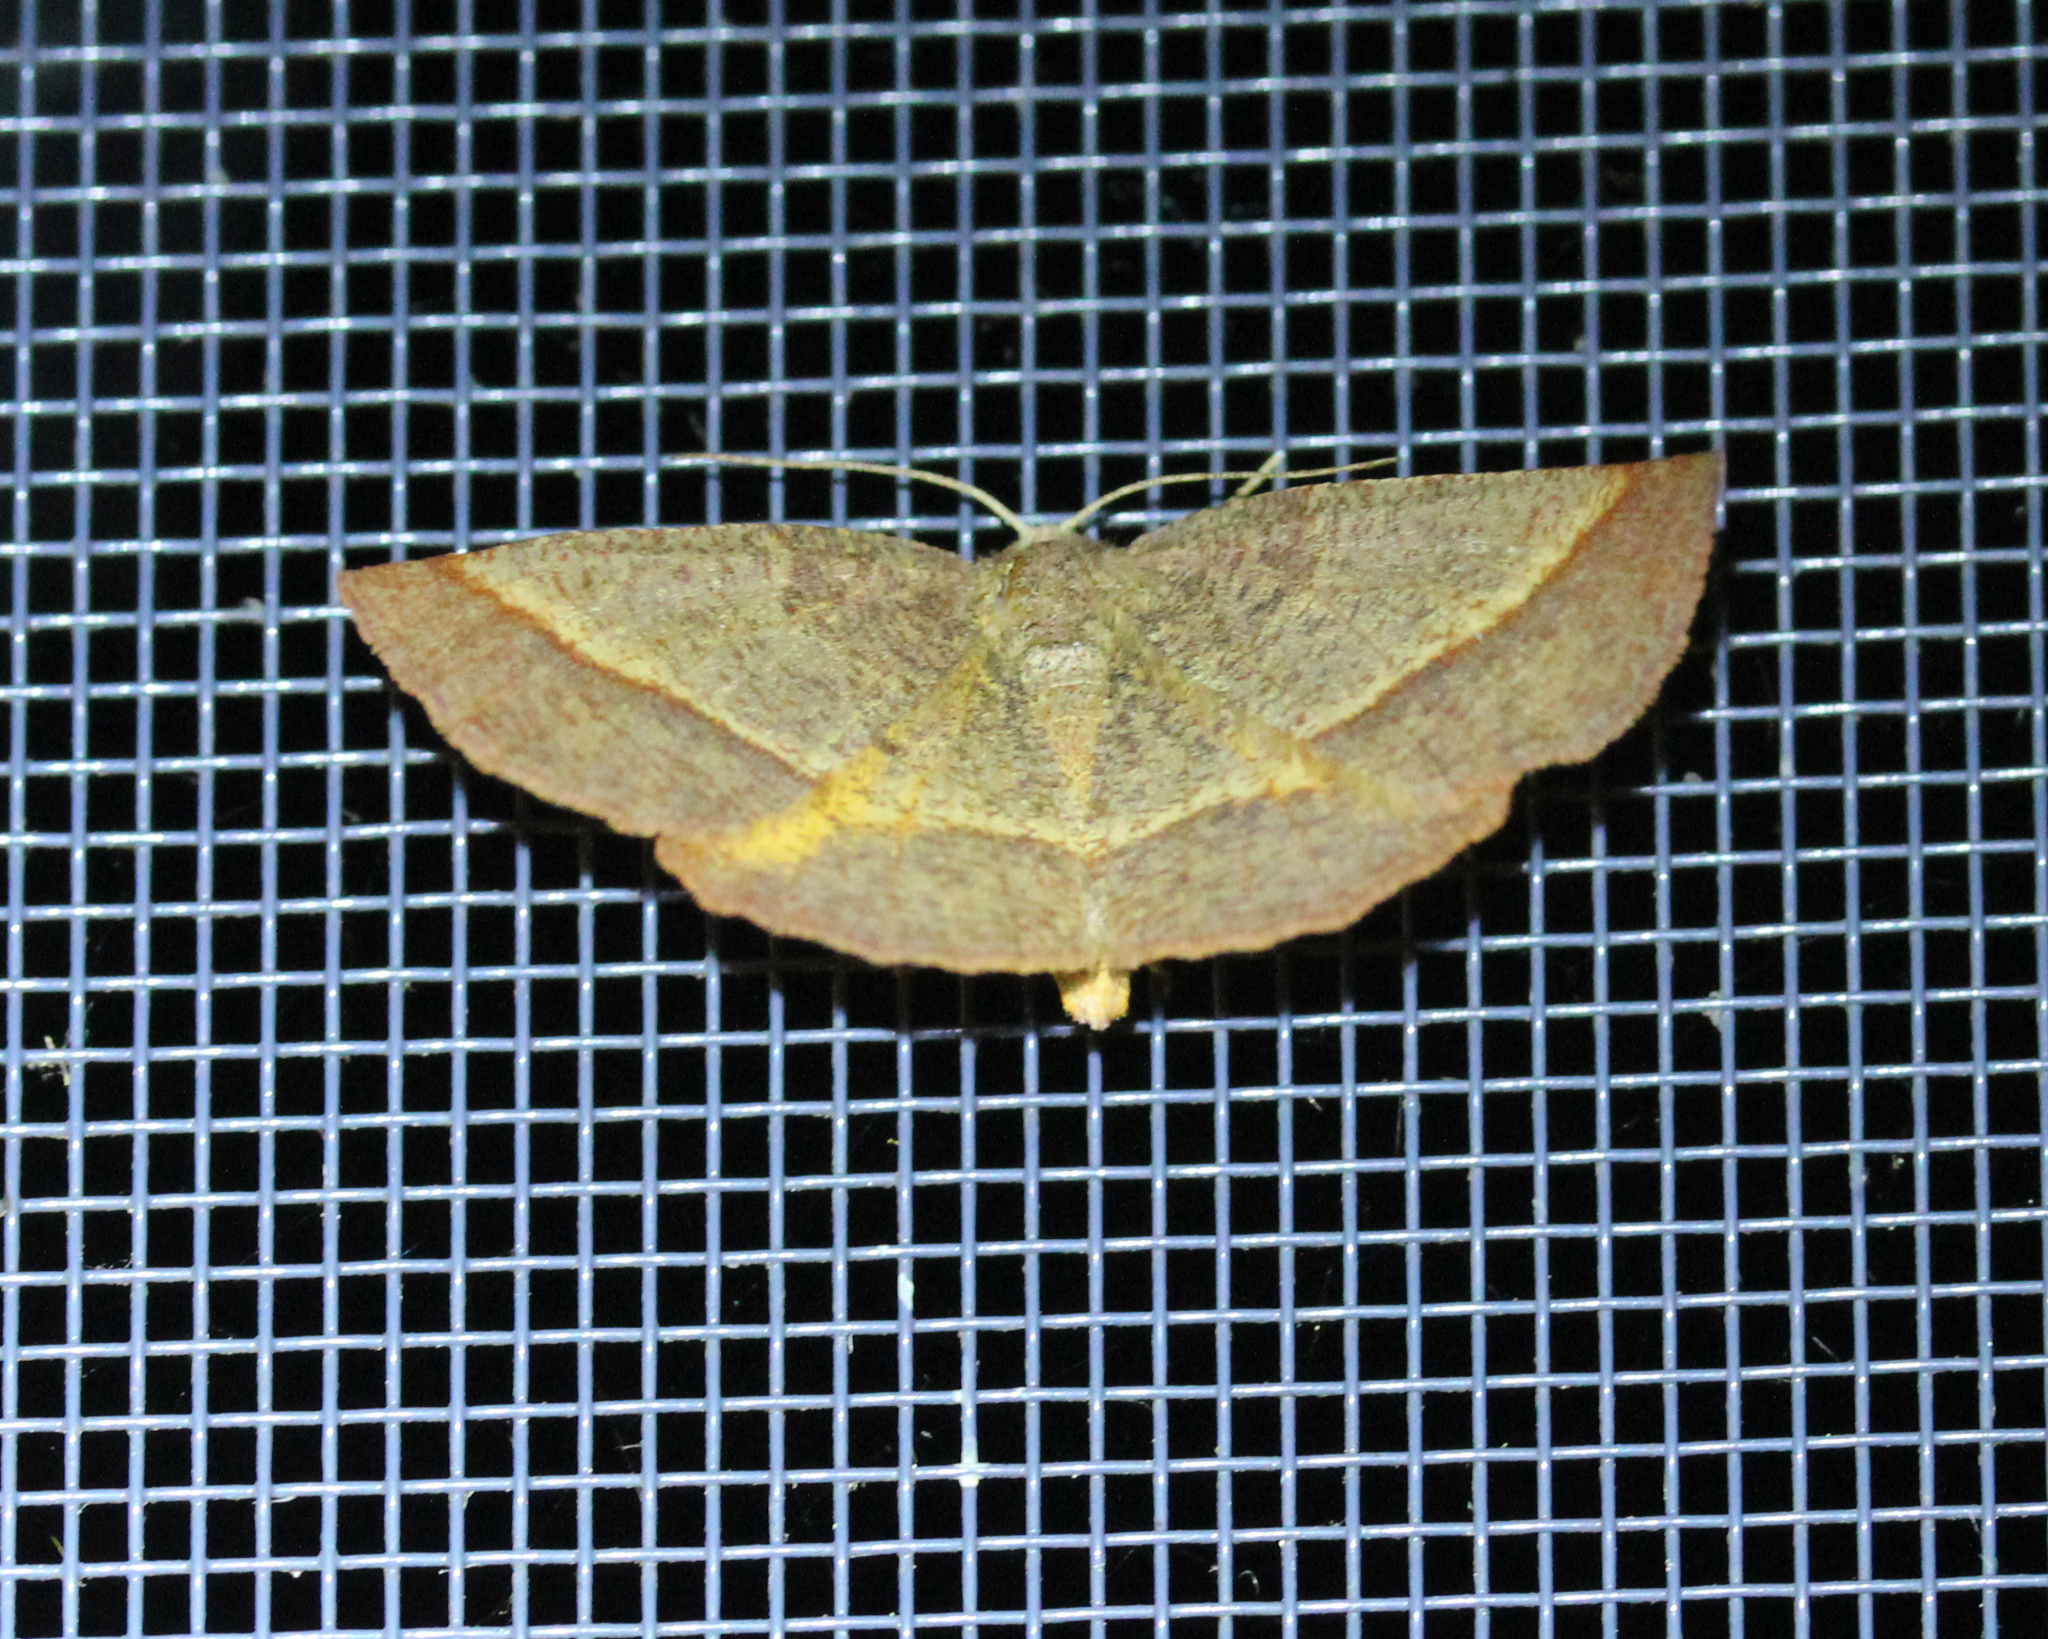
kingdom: Animalia
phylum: Arthropoda
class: Insecta
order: Lepidoptera
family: Geometridae
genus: Metarranthis
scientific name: Metarranthis obfirmaria
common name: Yellow-washed metarranthis
